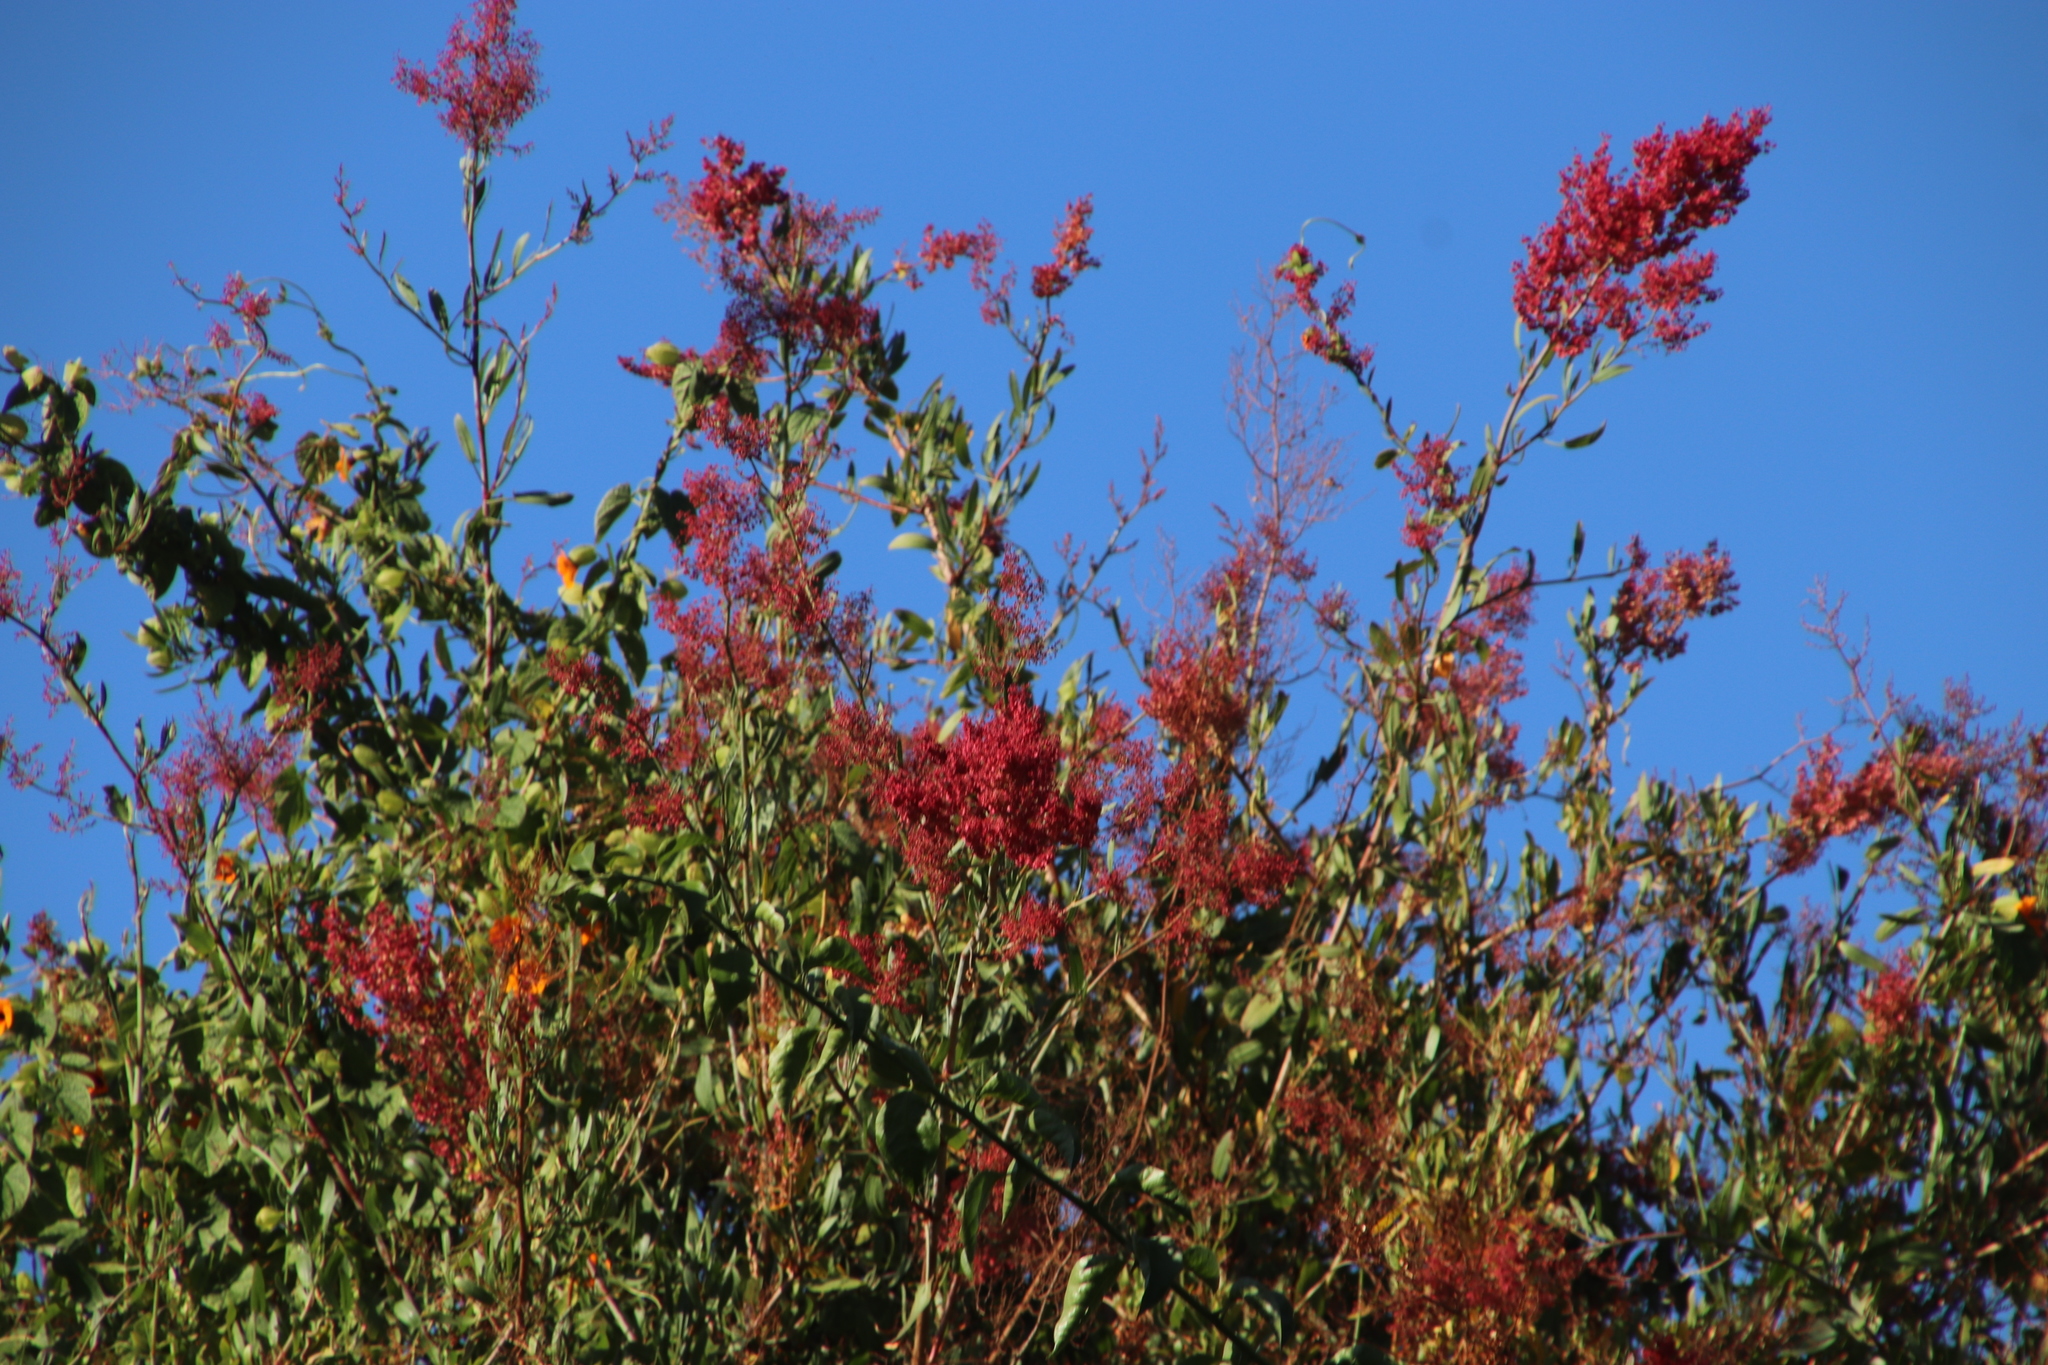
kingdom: Plantae
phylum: Tracheophyta
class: Magnoliopsida
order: Caryophyllales
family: Polygonaceae
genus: Rumex
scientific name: Rumex usambarensis
